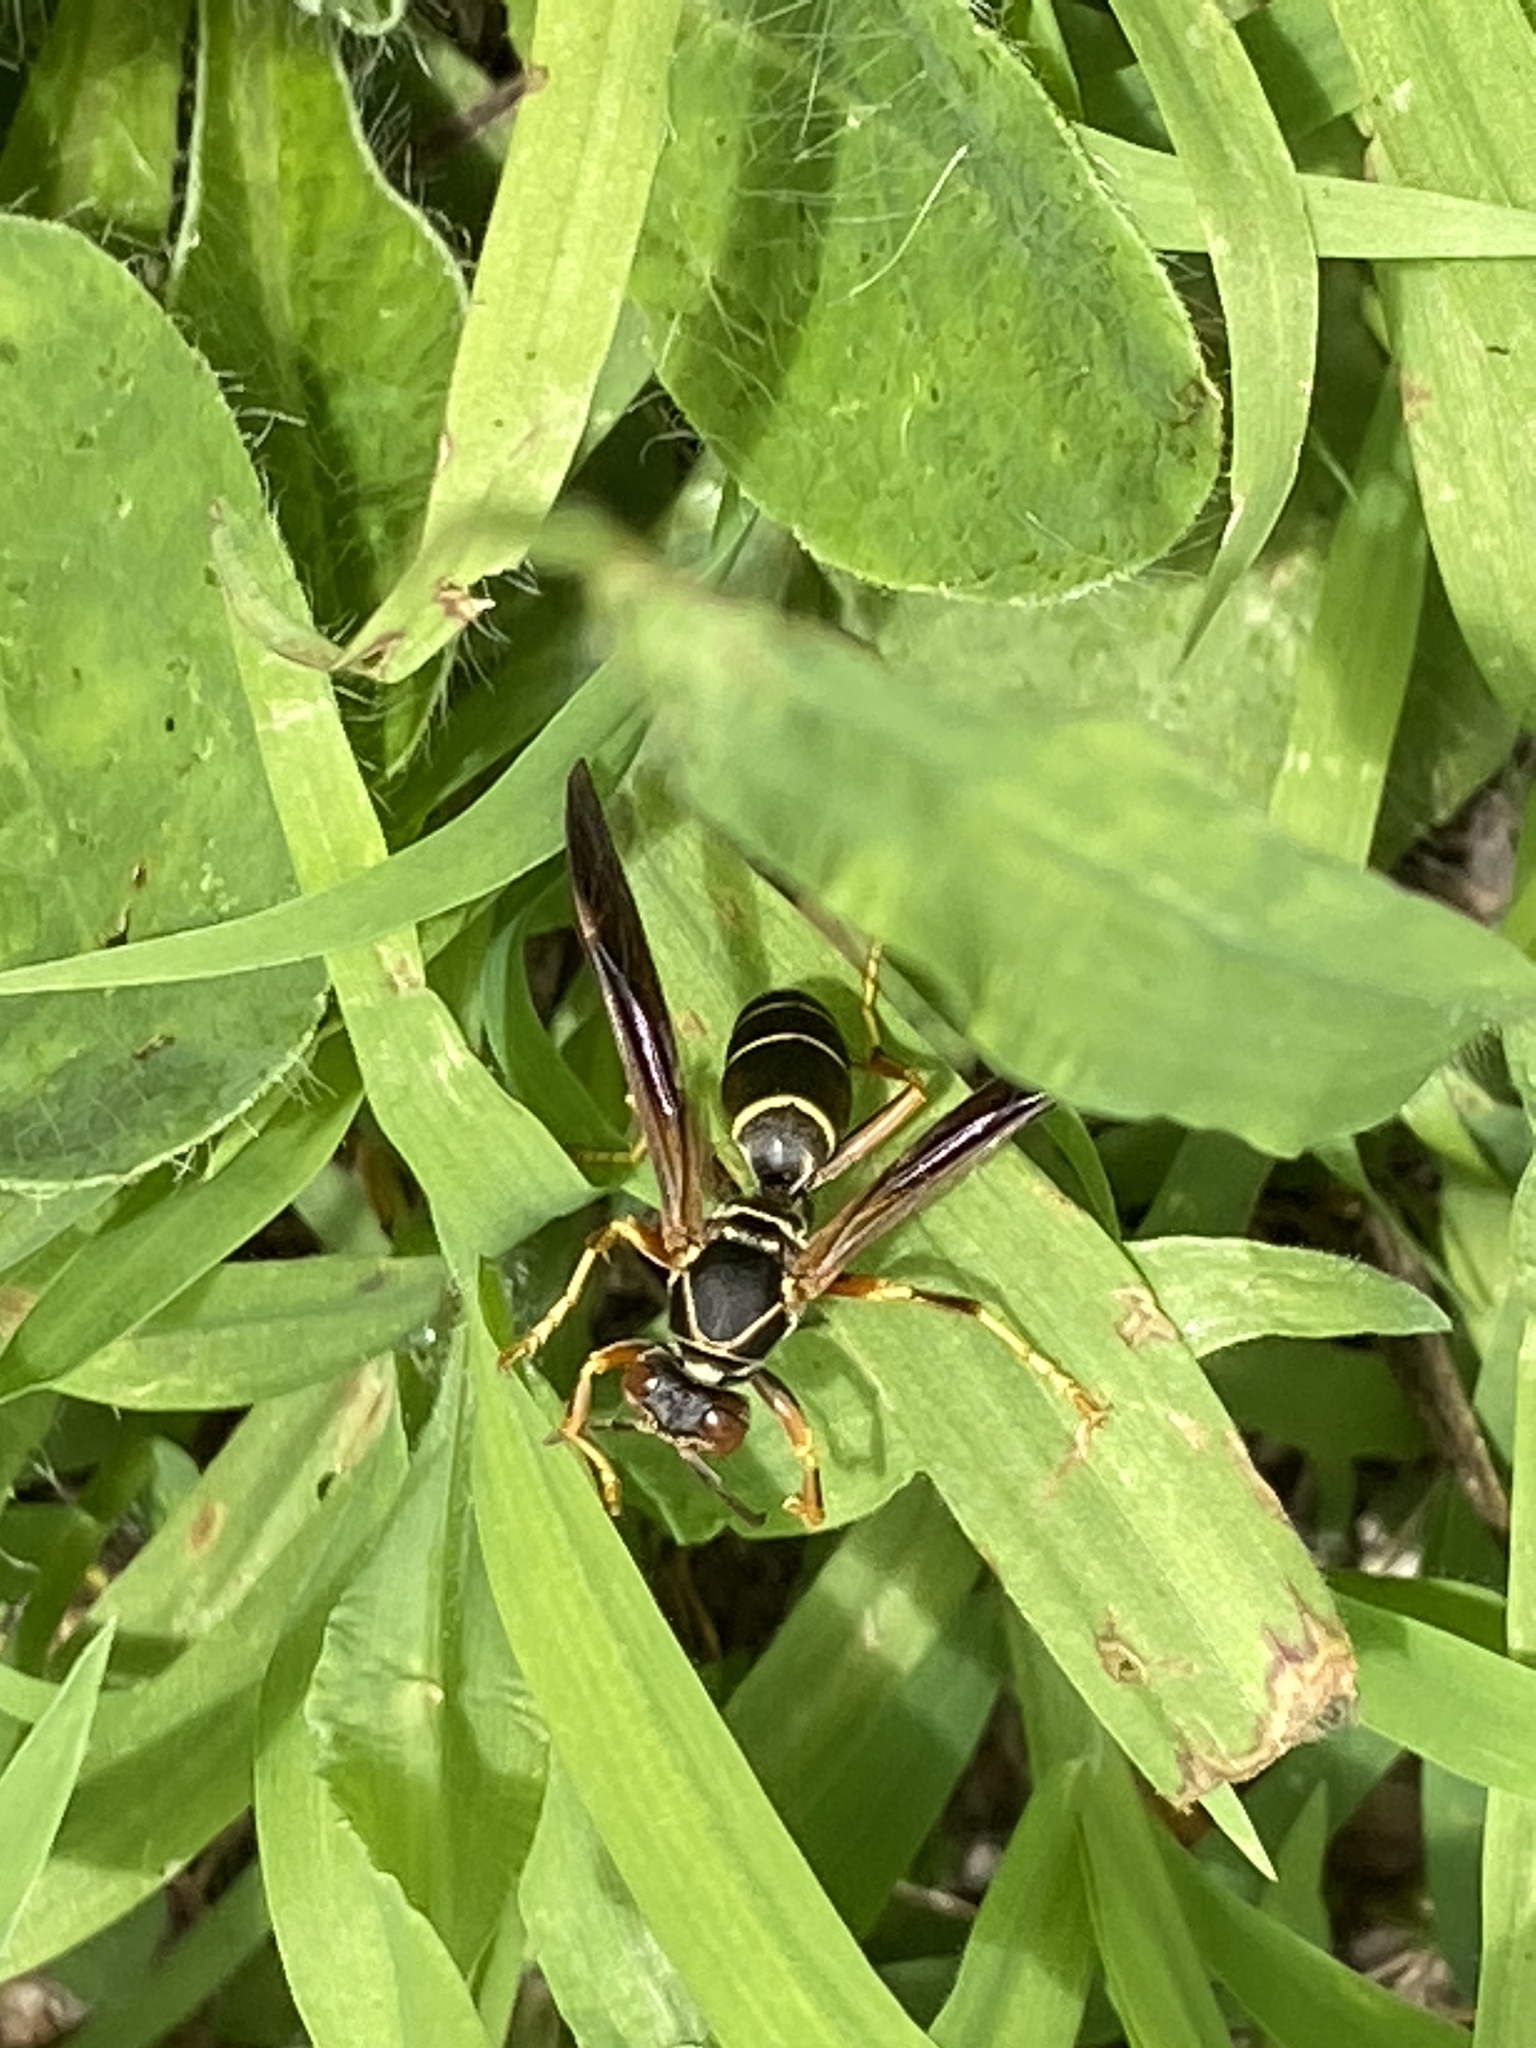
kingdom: Animalia
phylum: Arthropoda
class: Insecta
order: Hymenoptera
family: Eumenidae
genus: Polistes
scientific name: Polistes fuscatus
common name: Dark paper wasp
